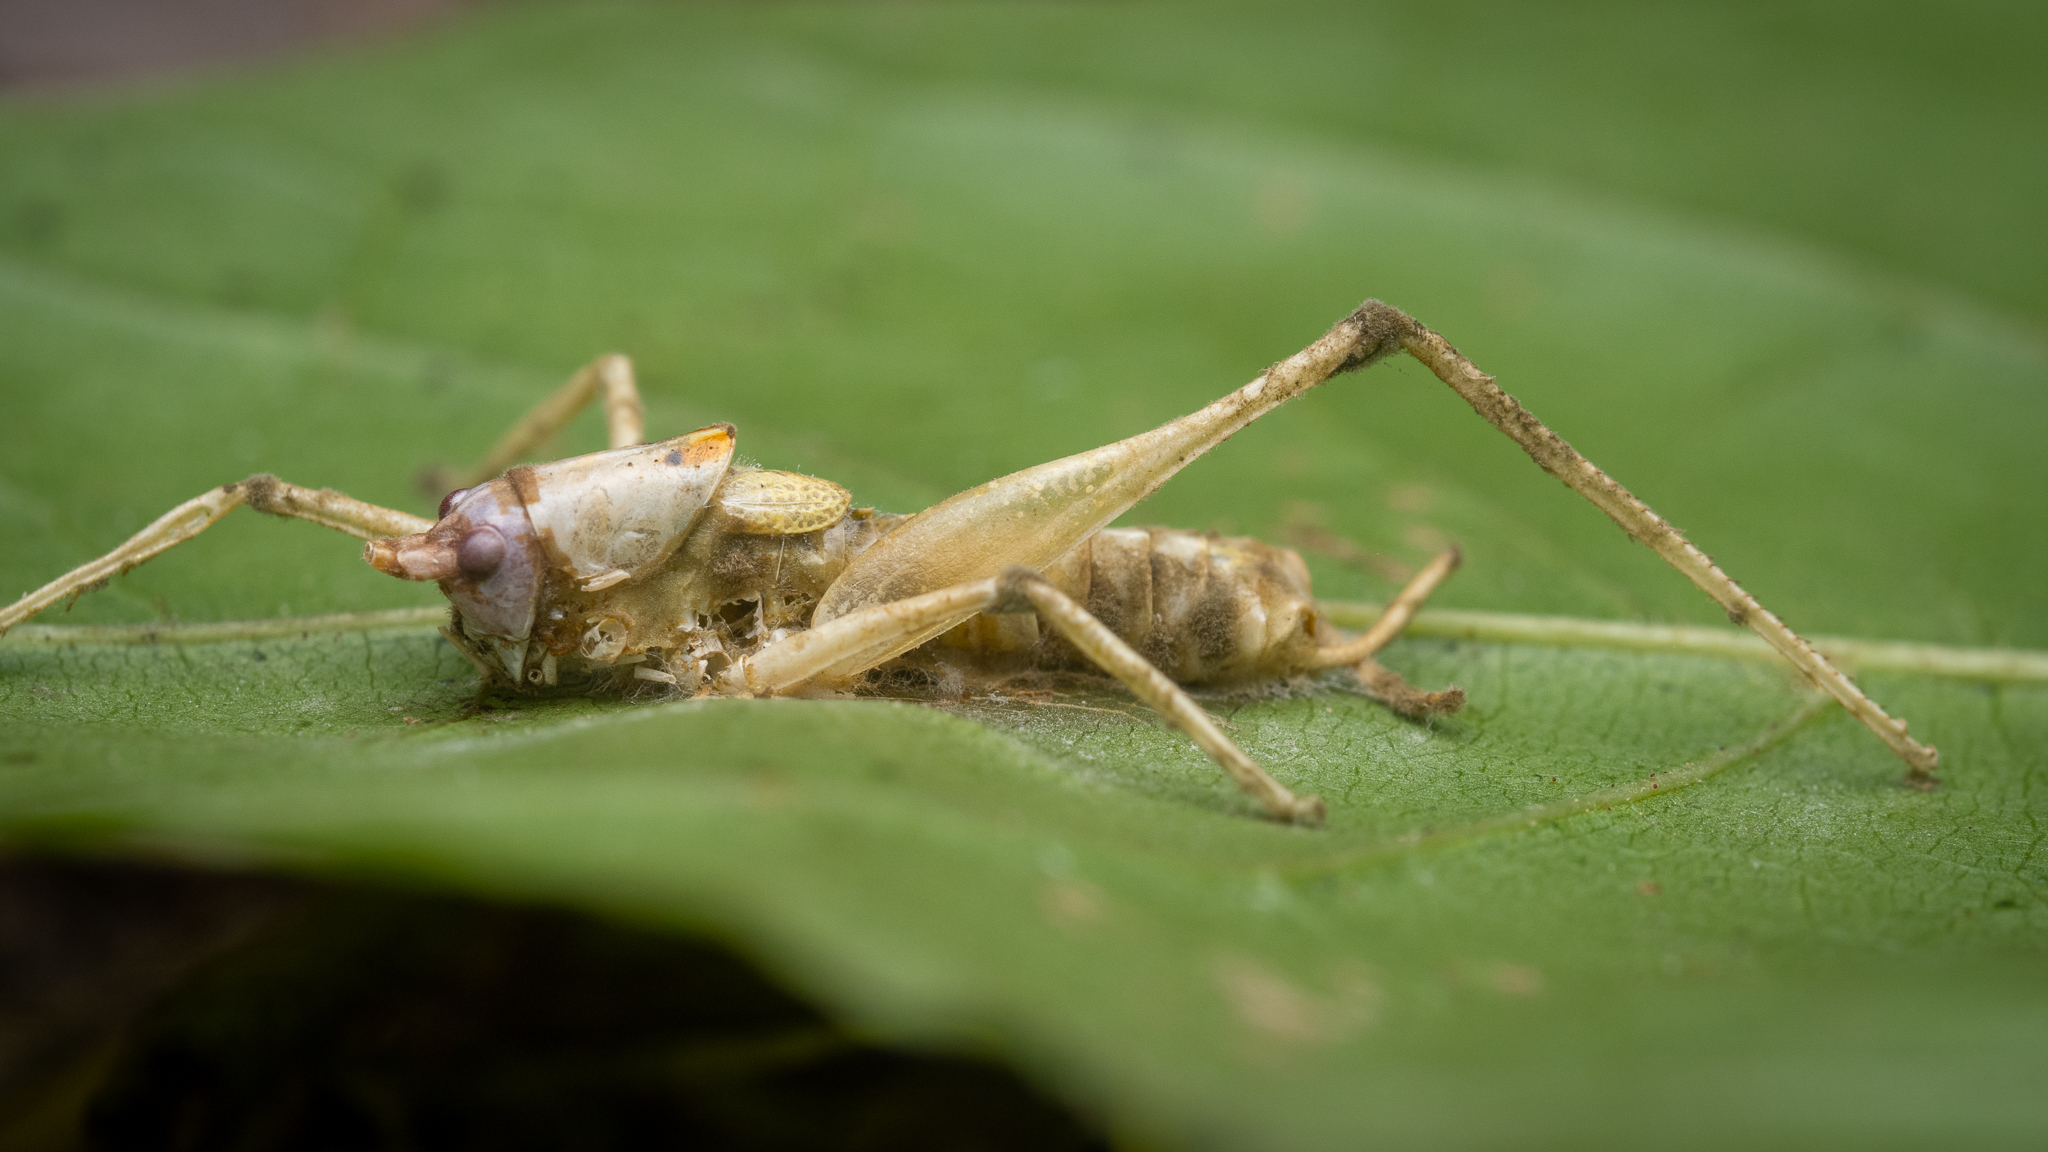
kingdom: Animalia
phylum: Arthropoda
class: Insecta
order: Orthoptera
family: Tettigoniidae
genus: Meconema
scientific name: Meconema meridionale
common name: Southern oak bush-cricket
